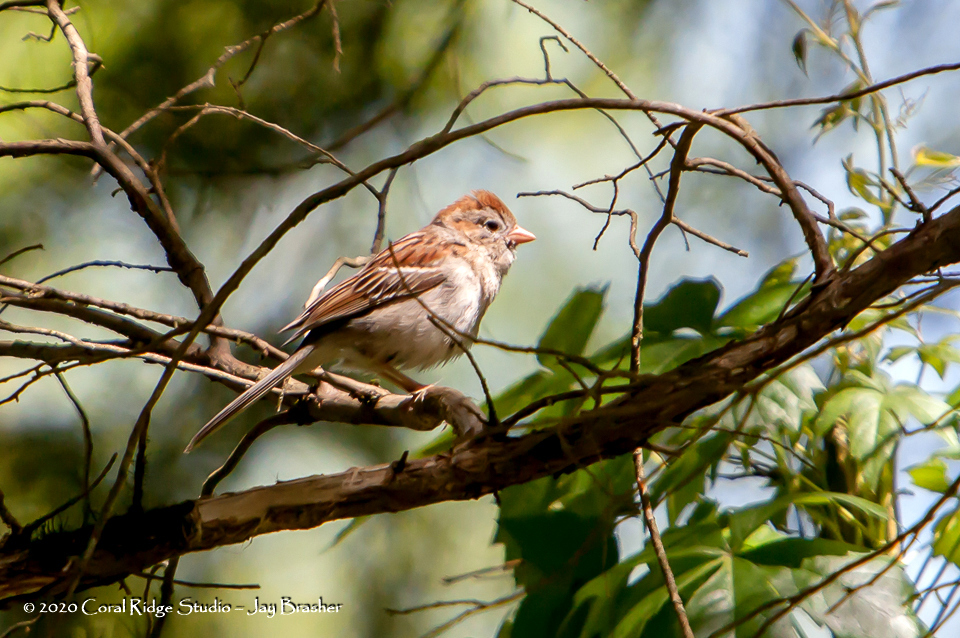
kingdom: Animalia
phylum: Chordata
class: Aves
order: Passeriformes
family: Passerellidae
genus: Spizella
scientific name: Spizella pusilla
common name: Field sparrow
